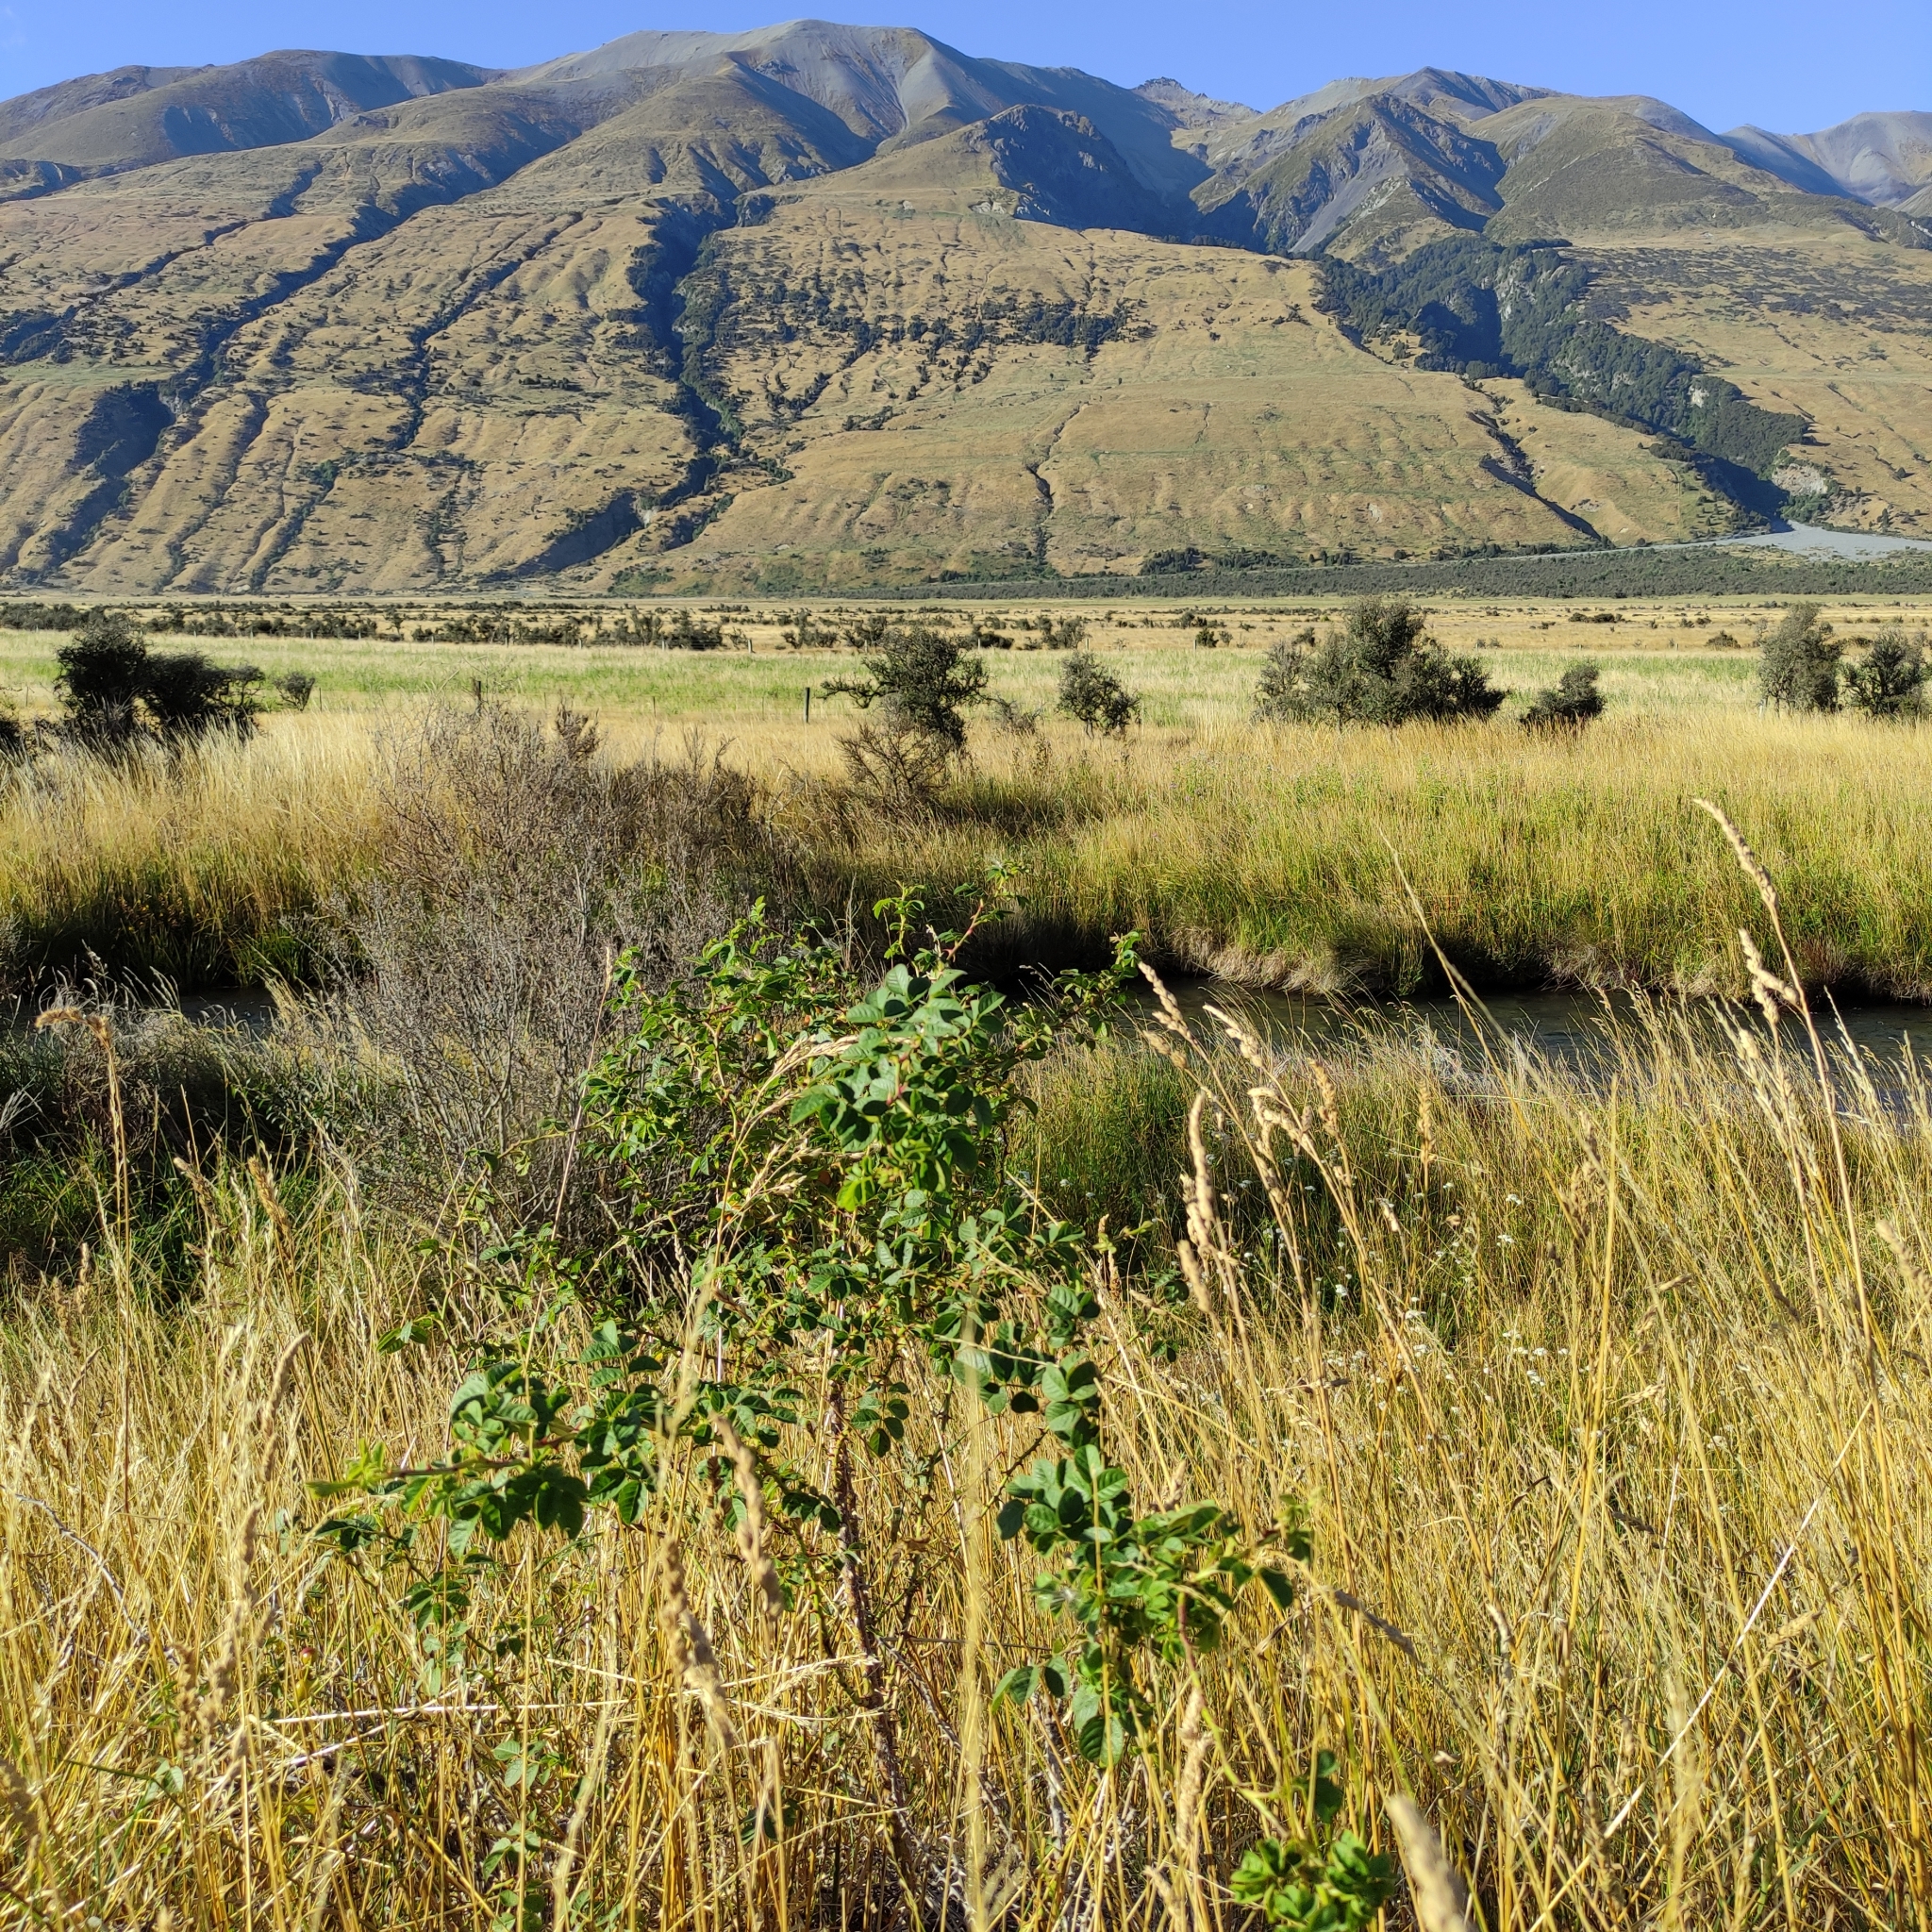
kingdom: Plantae
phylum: Tracheophyta
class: Magnoliopsida
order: Rosales
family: Rosaceae
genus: Rosa
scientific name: Rosa rubiginosa
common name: Sweet-briar
